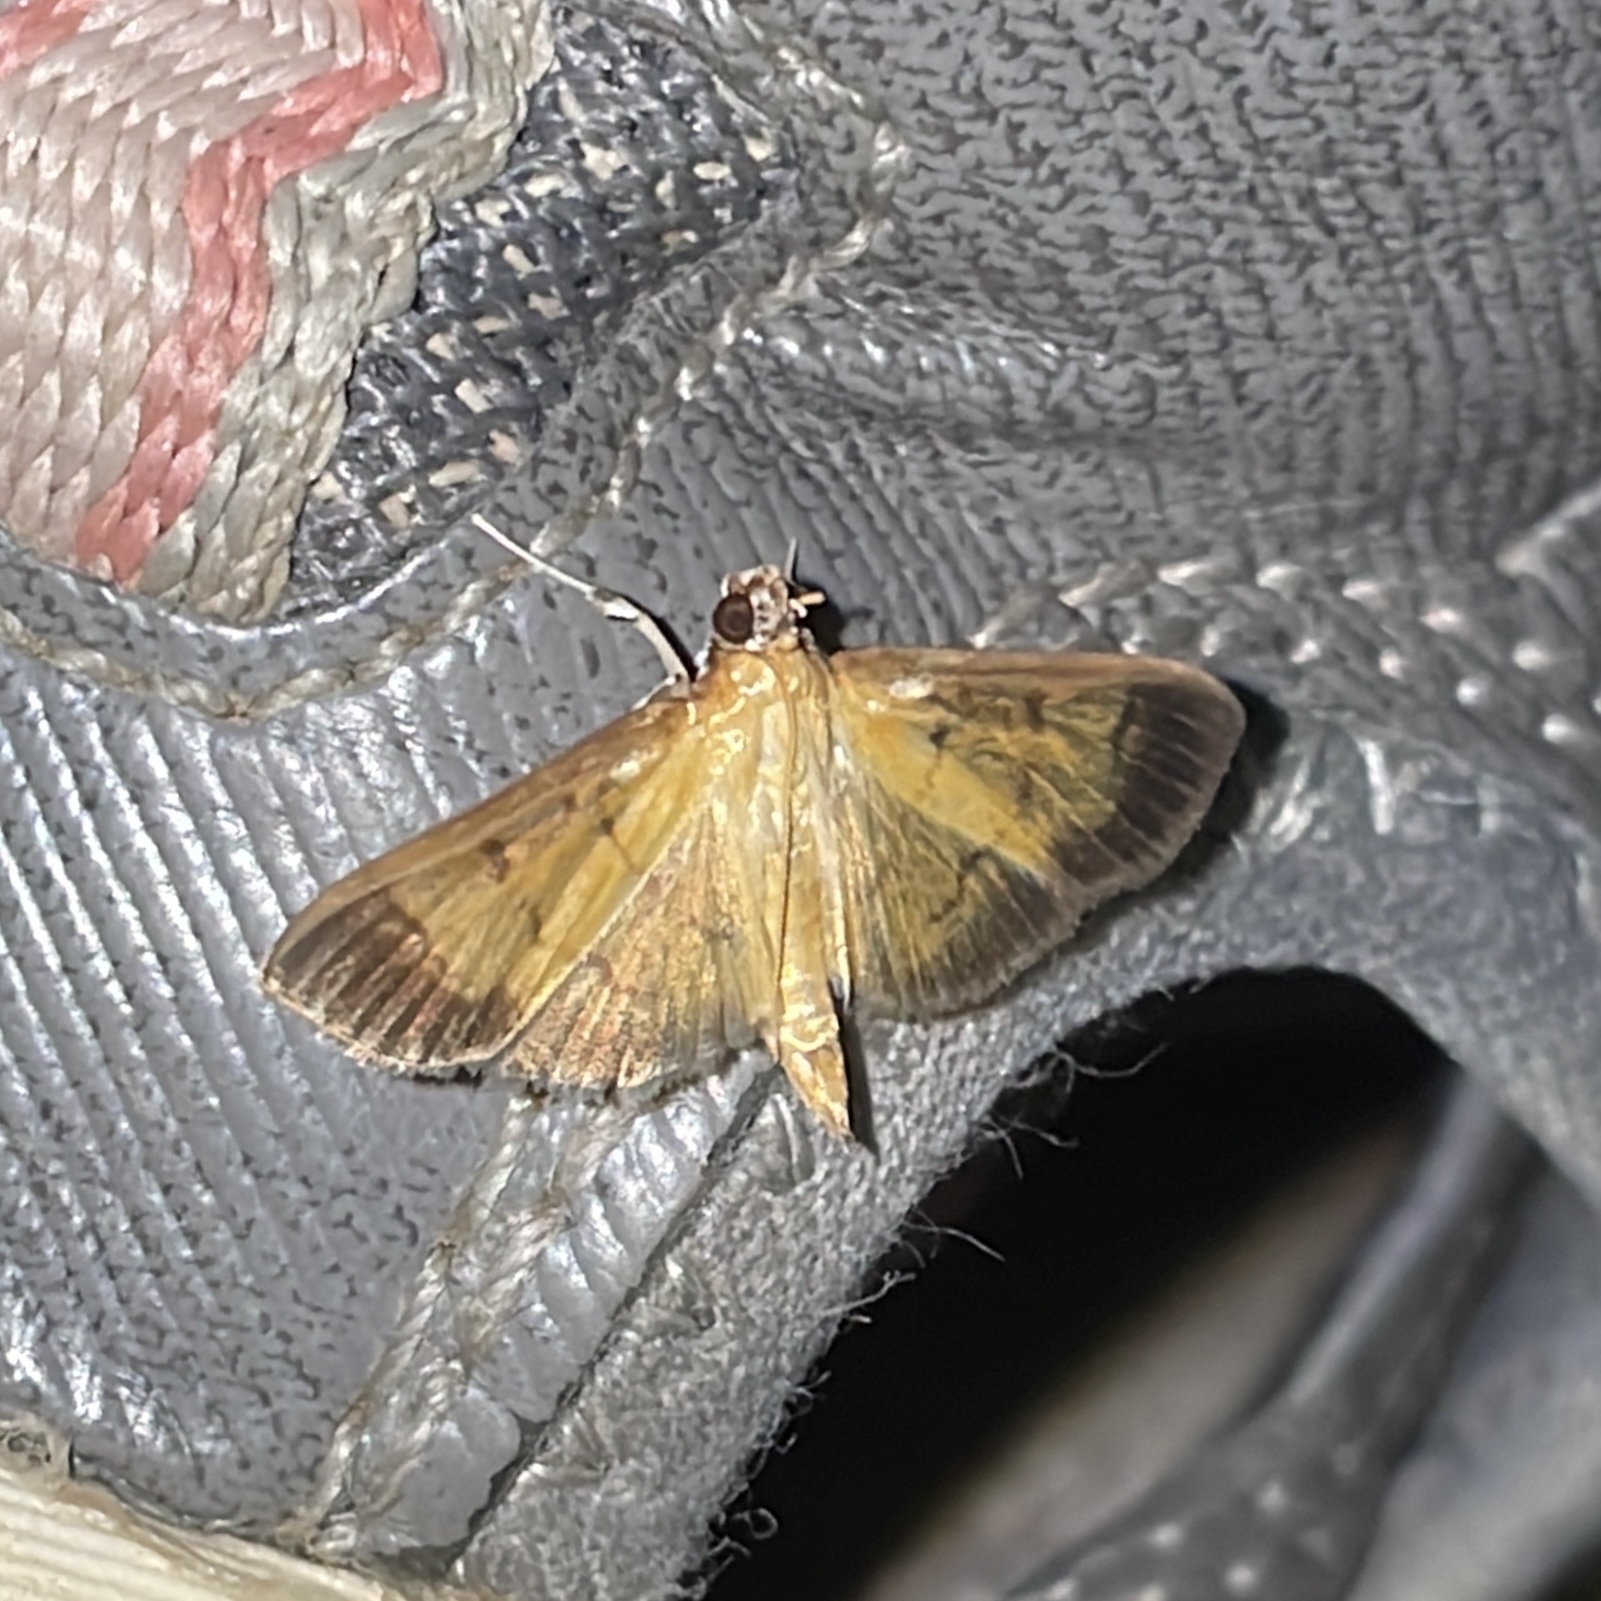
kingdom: Animalia
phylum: Arthropoda
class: Insecta
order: Lepidoptera
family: Crambidae
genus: Palpusia
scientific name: Palpusia terminalis
